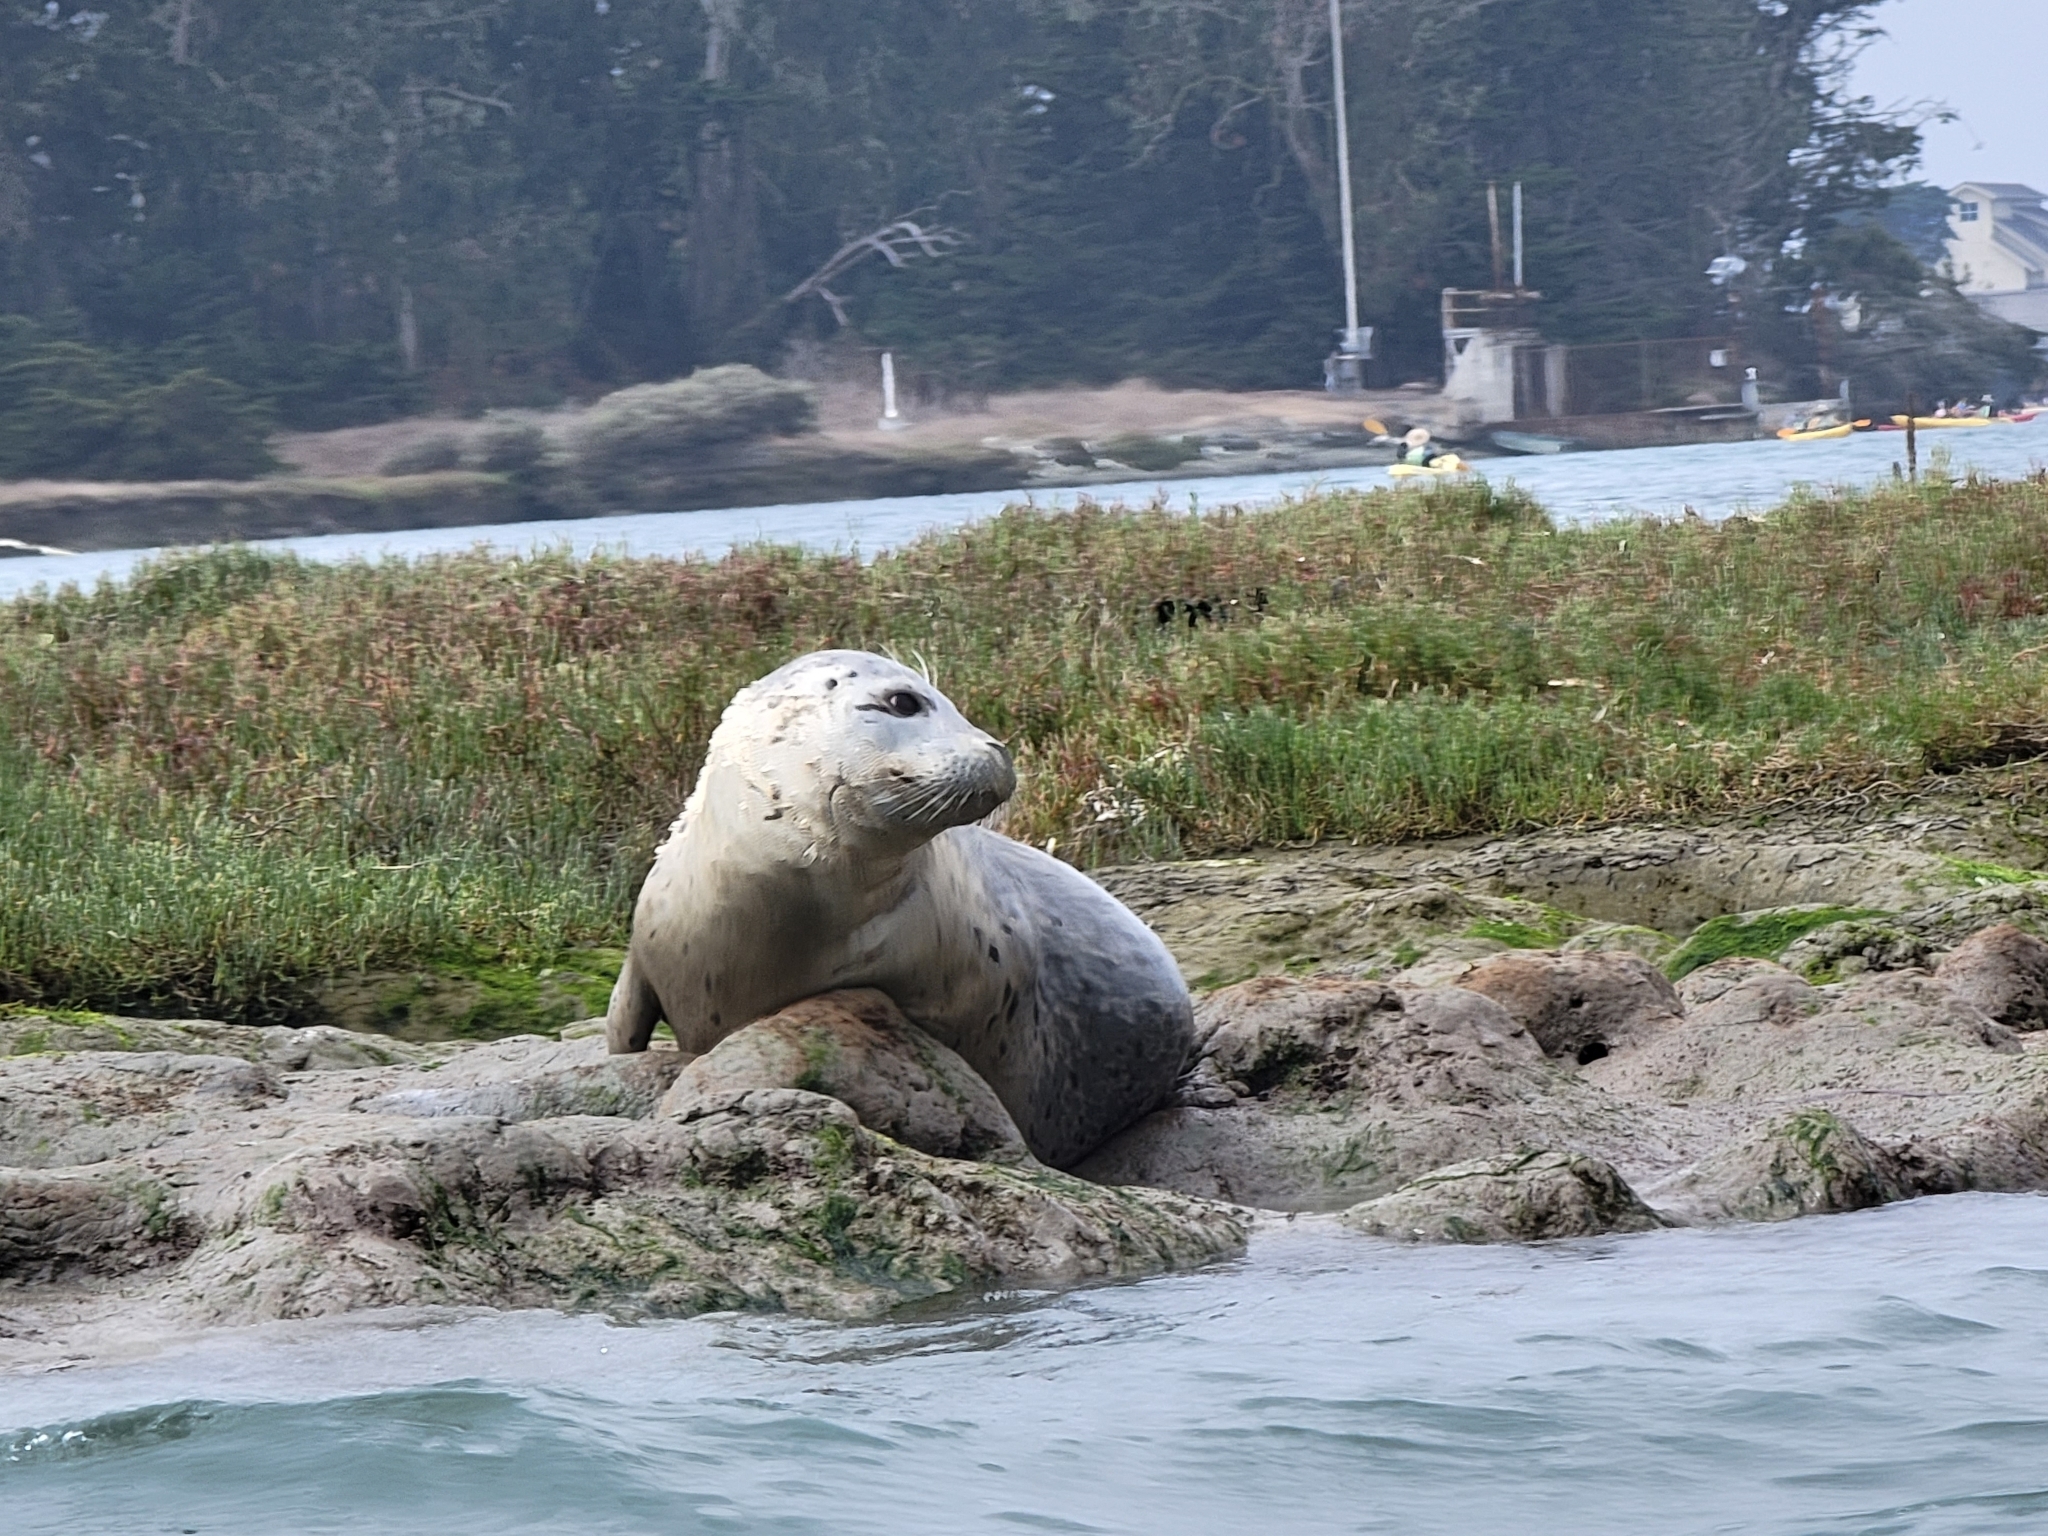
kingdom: Animalia
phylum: Chordata
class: Mammalia
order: Carnivora
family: Phocidae
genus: Phoca
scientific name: Phoca vitulina
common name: Harbor seal
